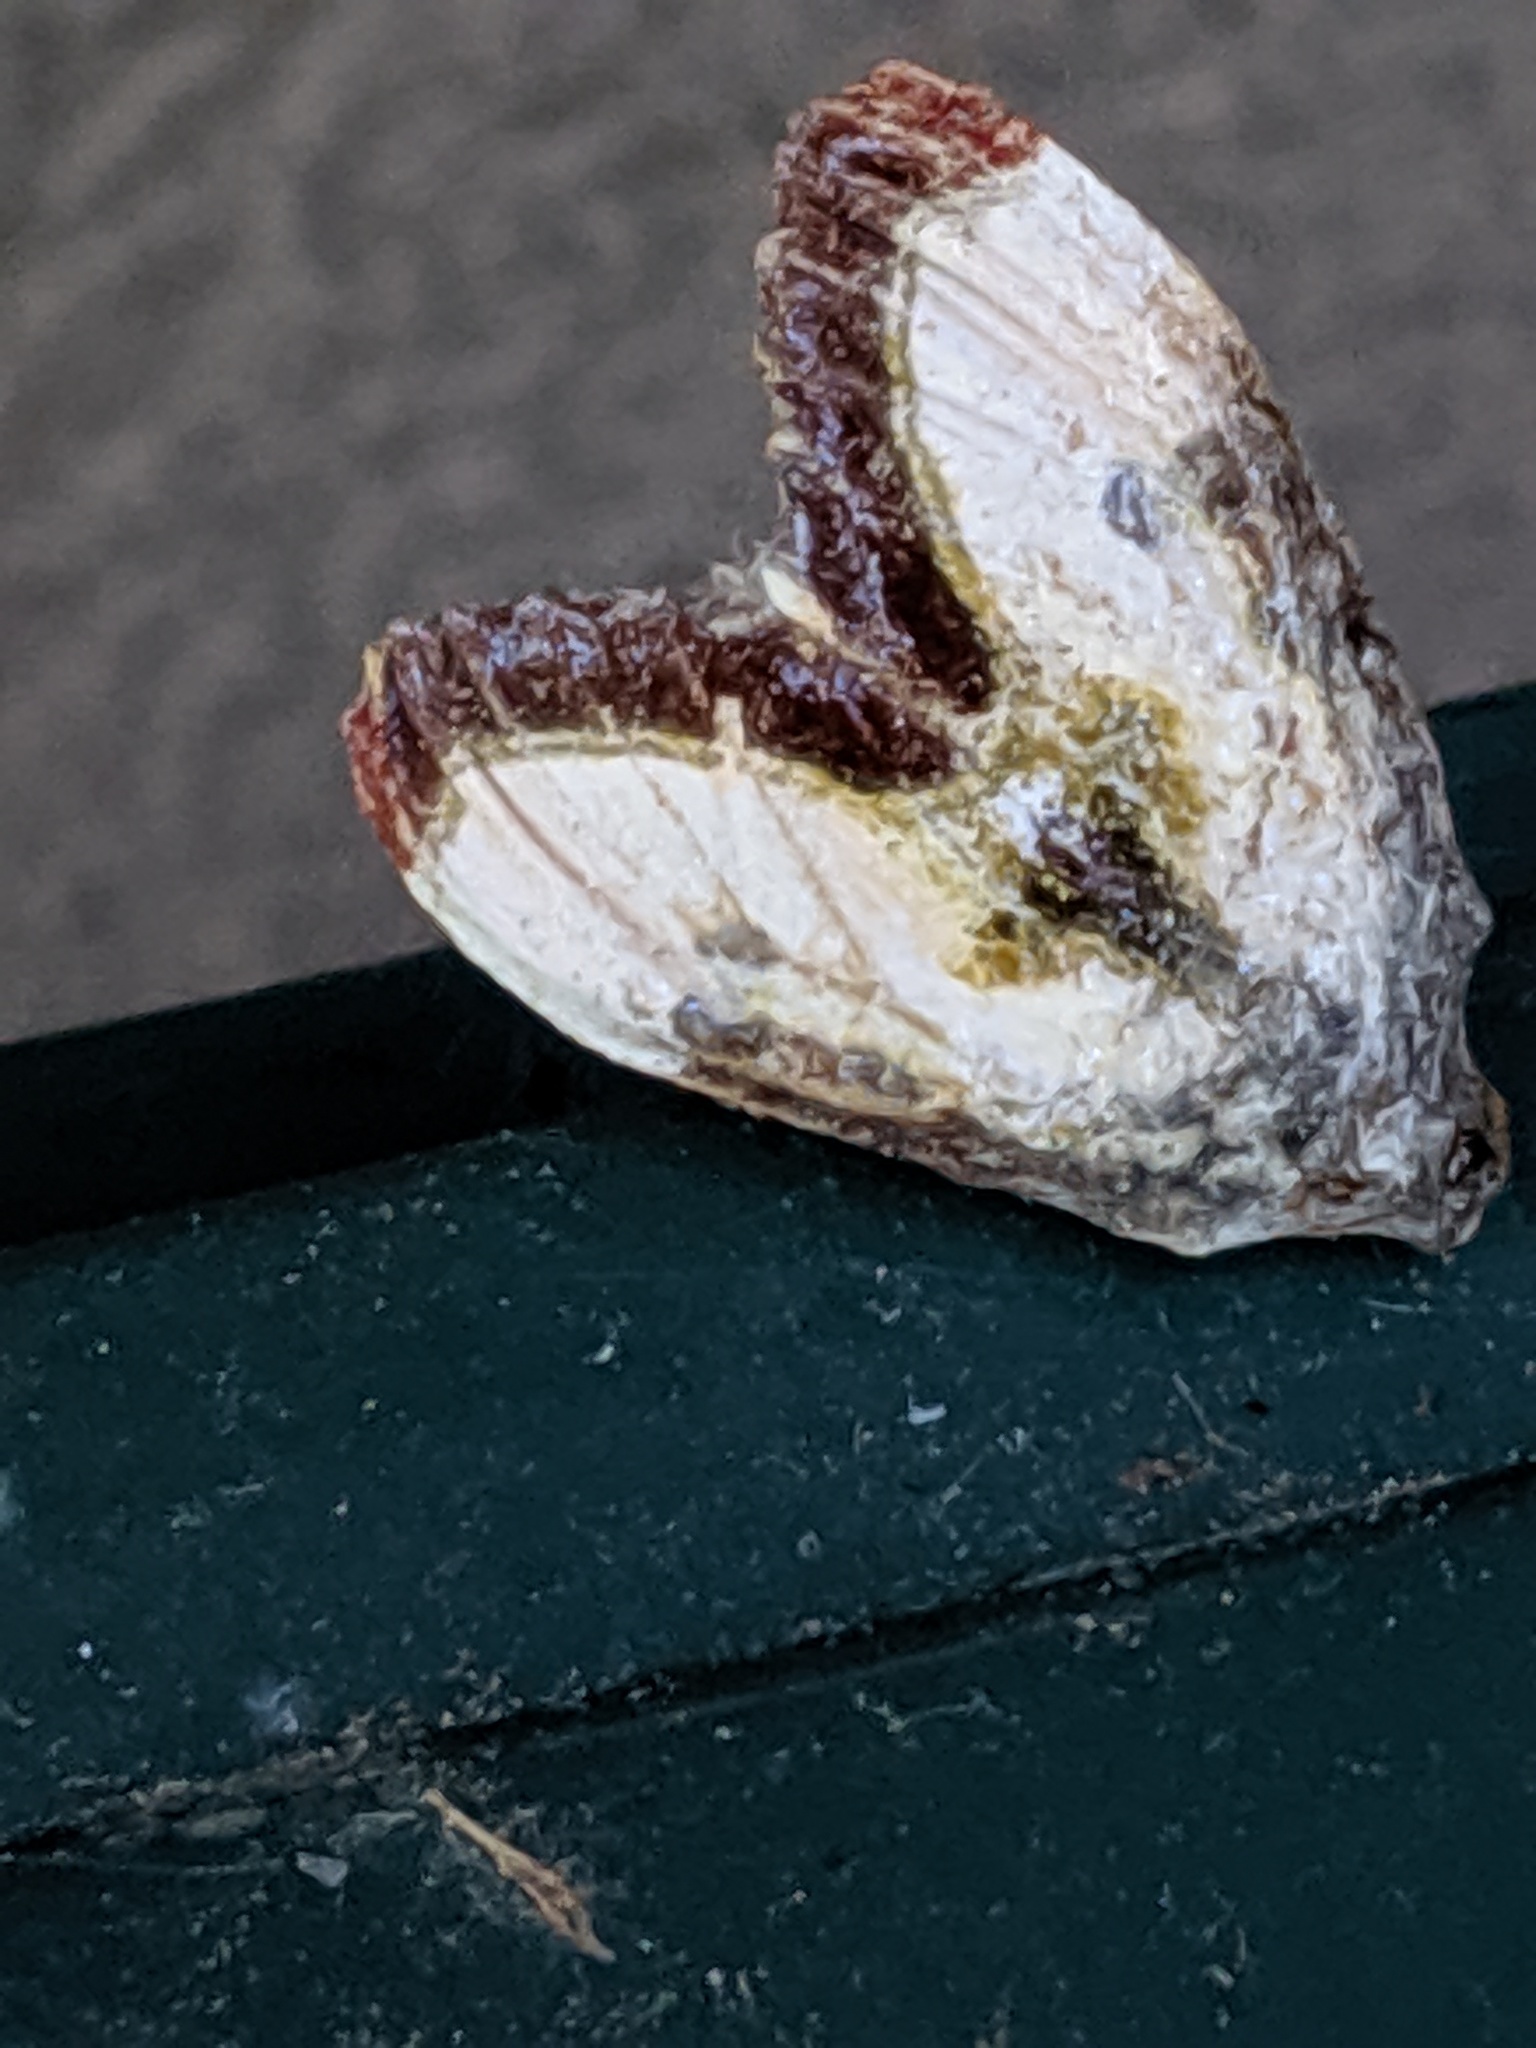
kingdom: Animalia
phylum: Arthropoda
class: Insecta
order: Lepidoptera
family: Noctuidae
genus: Eudryas
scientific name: Eudryas grata
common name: Beautiful wood-nymph
